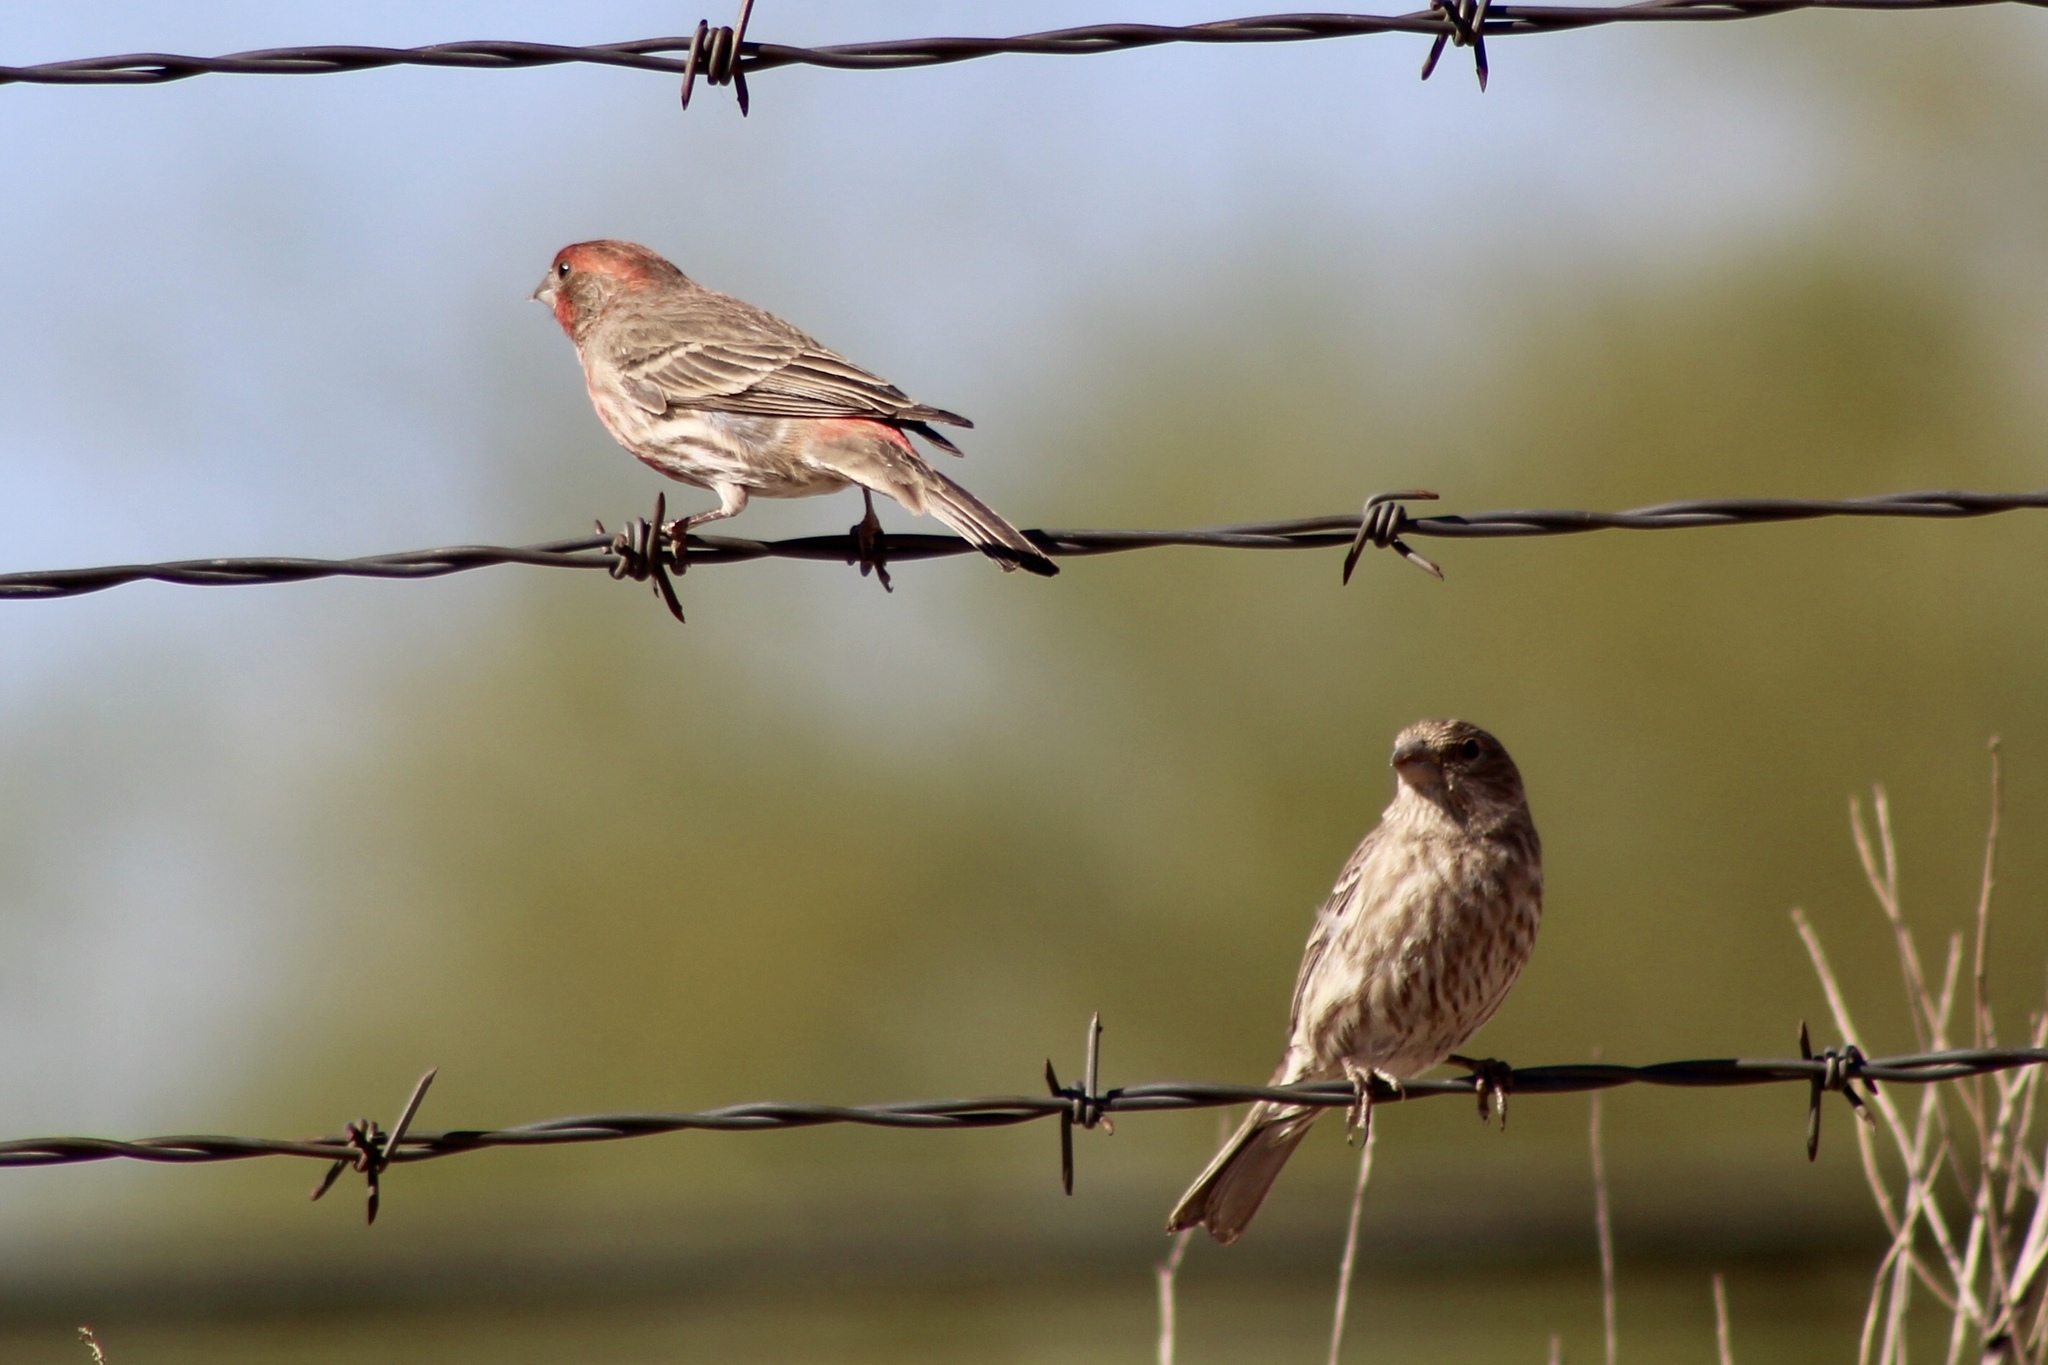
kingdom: Animalia
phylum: Chordata
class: Aves
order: Passeriformes
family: Fringillidae
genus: Haemorhous
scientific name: Haemorhous mexicanus
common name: House finch
